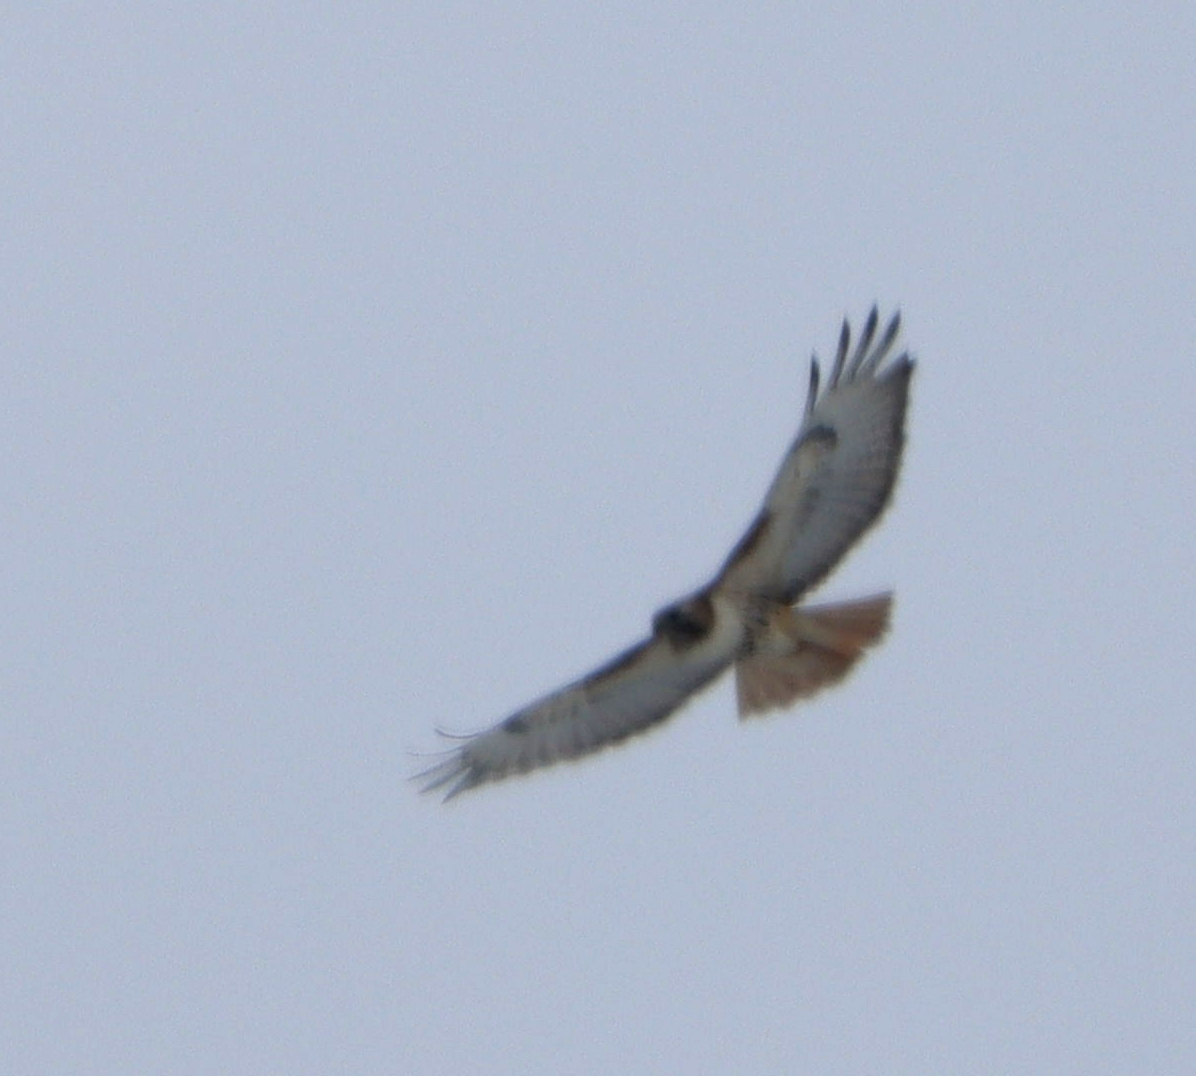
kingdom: Animalia
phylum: Chordata
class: Aves
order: Accipitriformes
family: Accipitridae
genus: Buteo
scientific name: Buteo jamaicensis
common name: Red-tailed hawk
